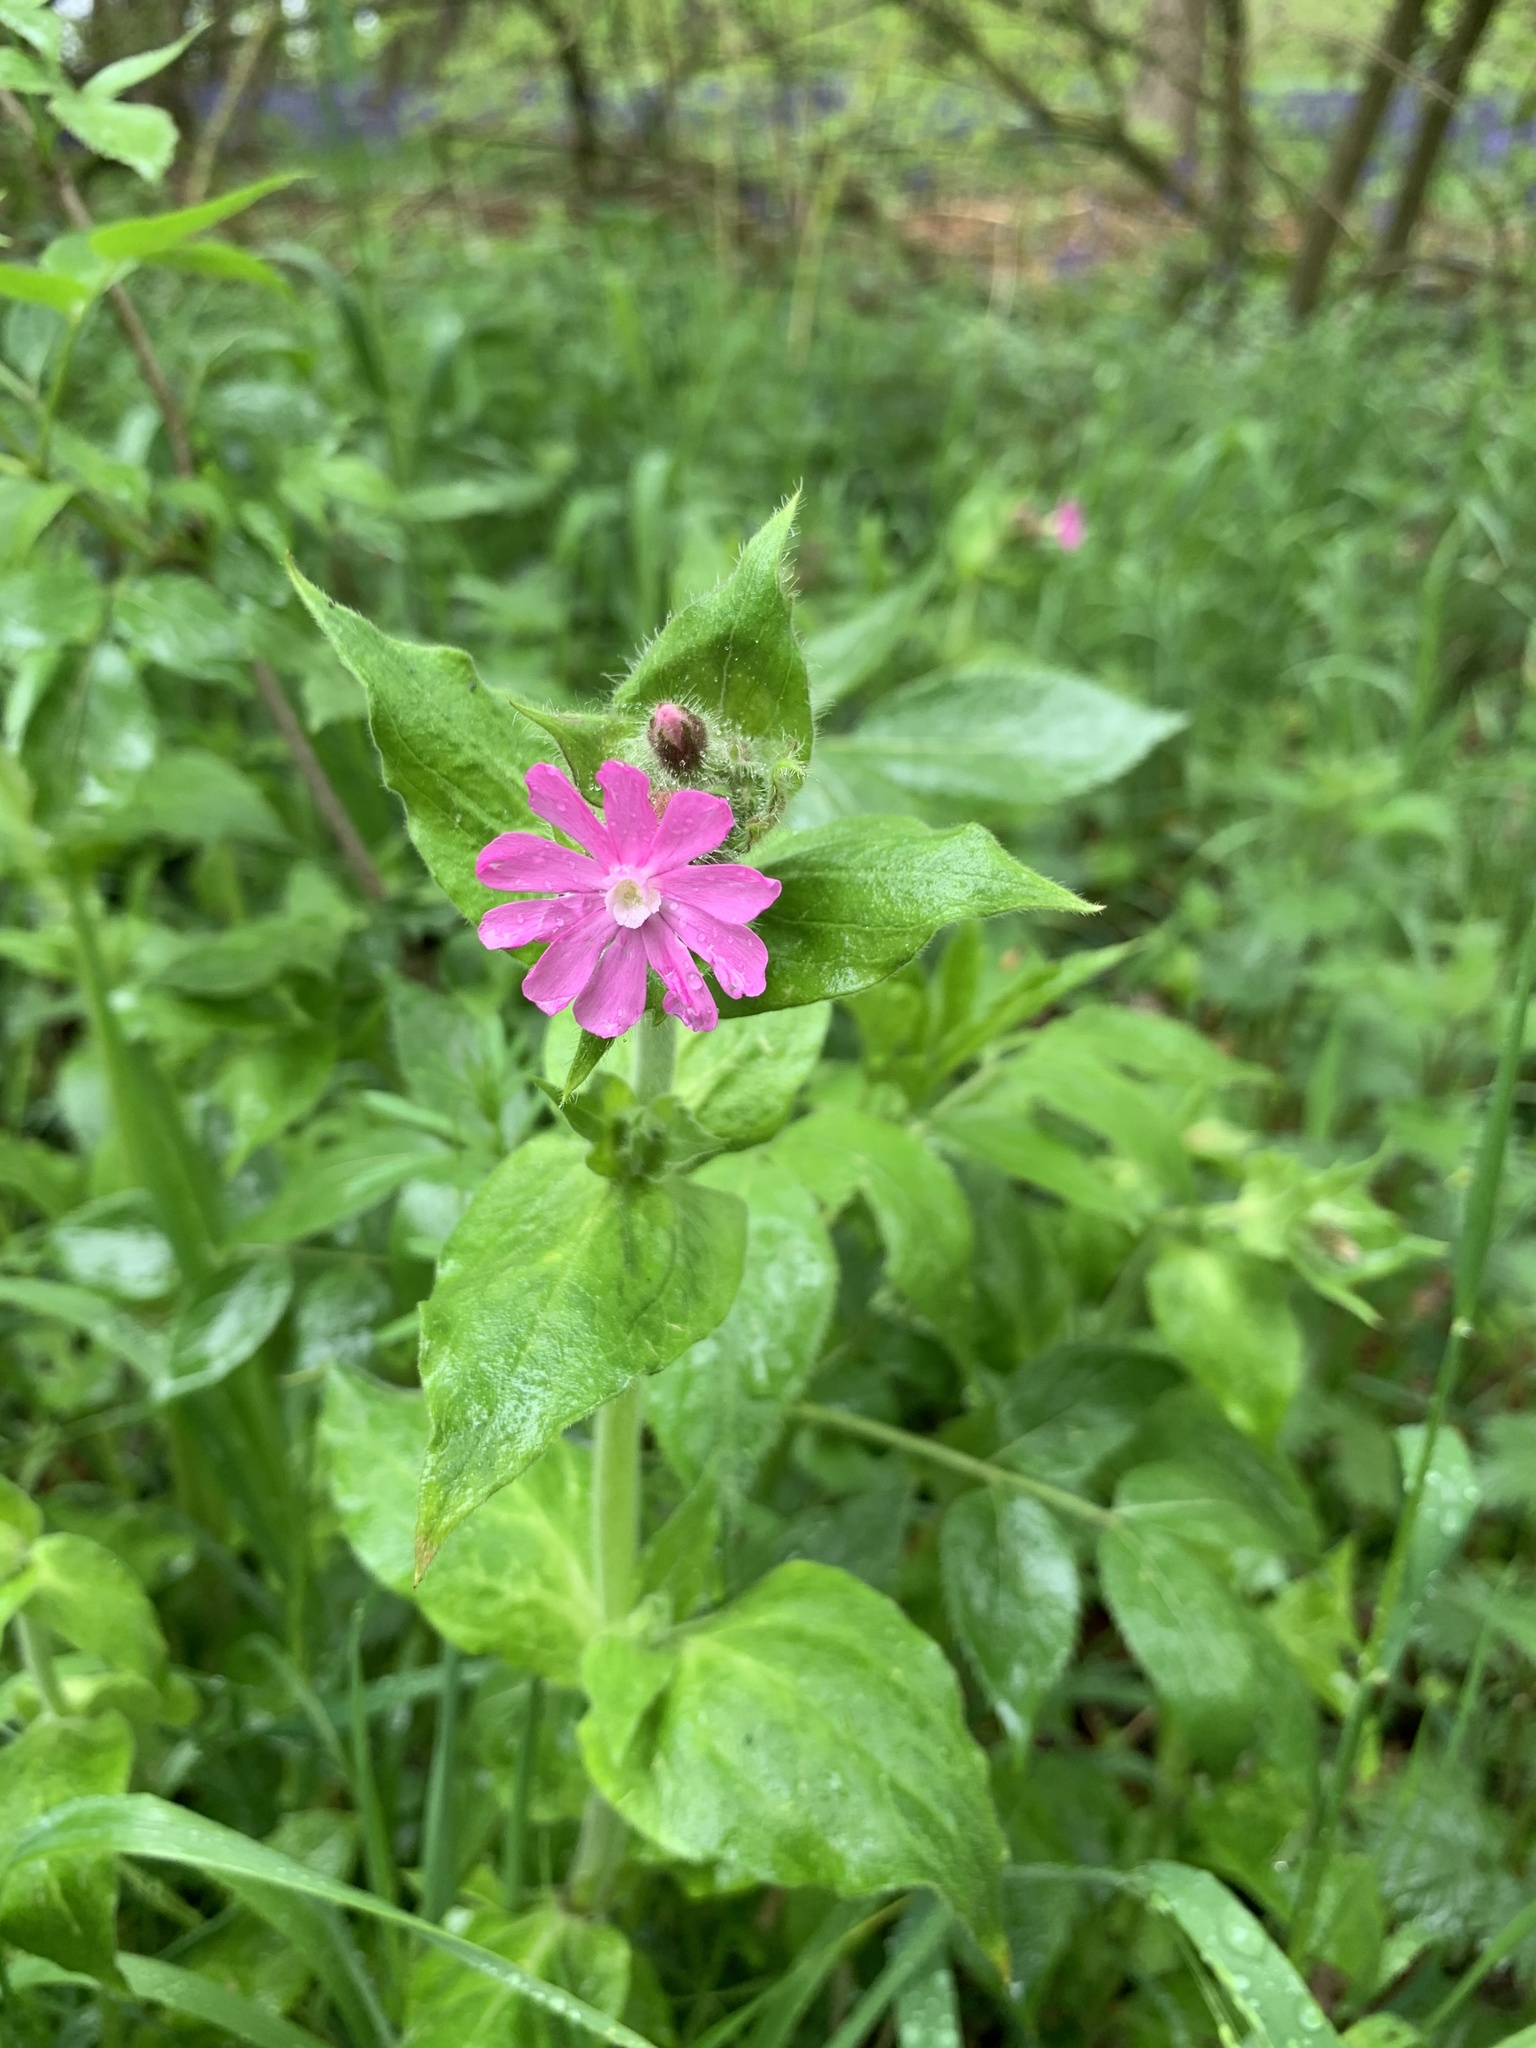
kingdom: Plantae
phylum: Tracheophyta
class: Magnoliopsida
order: Caryophyllales
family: Caryophyllaceae
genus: Silene
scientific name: Silene dioica
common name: Red campion
